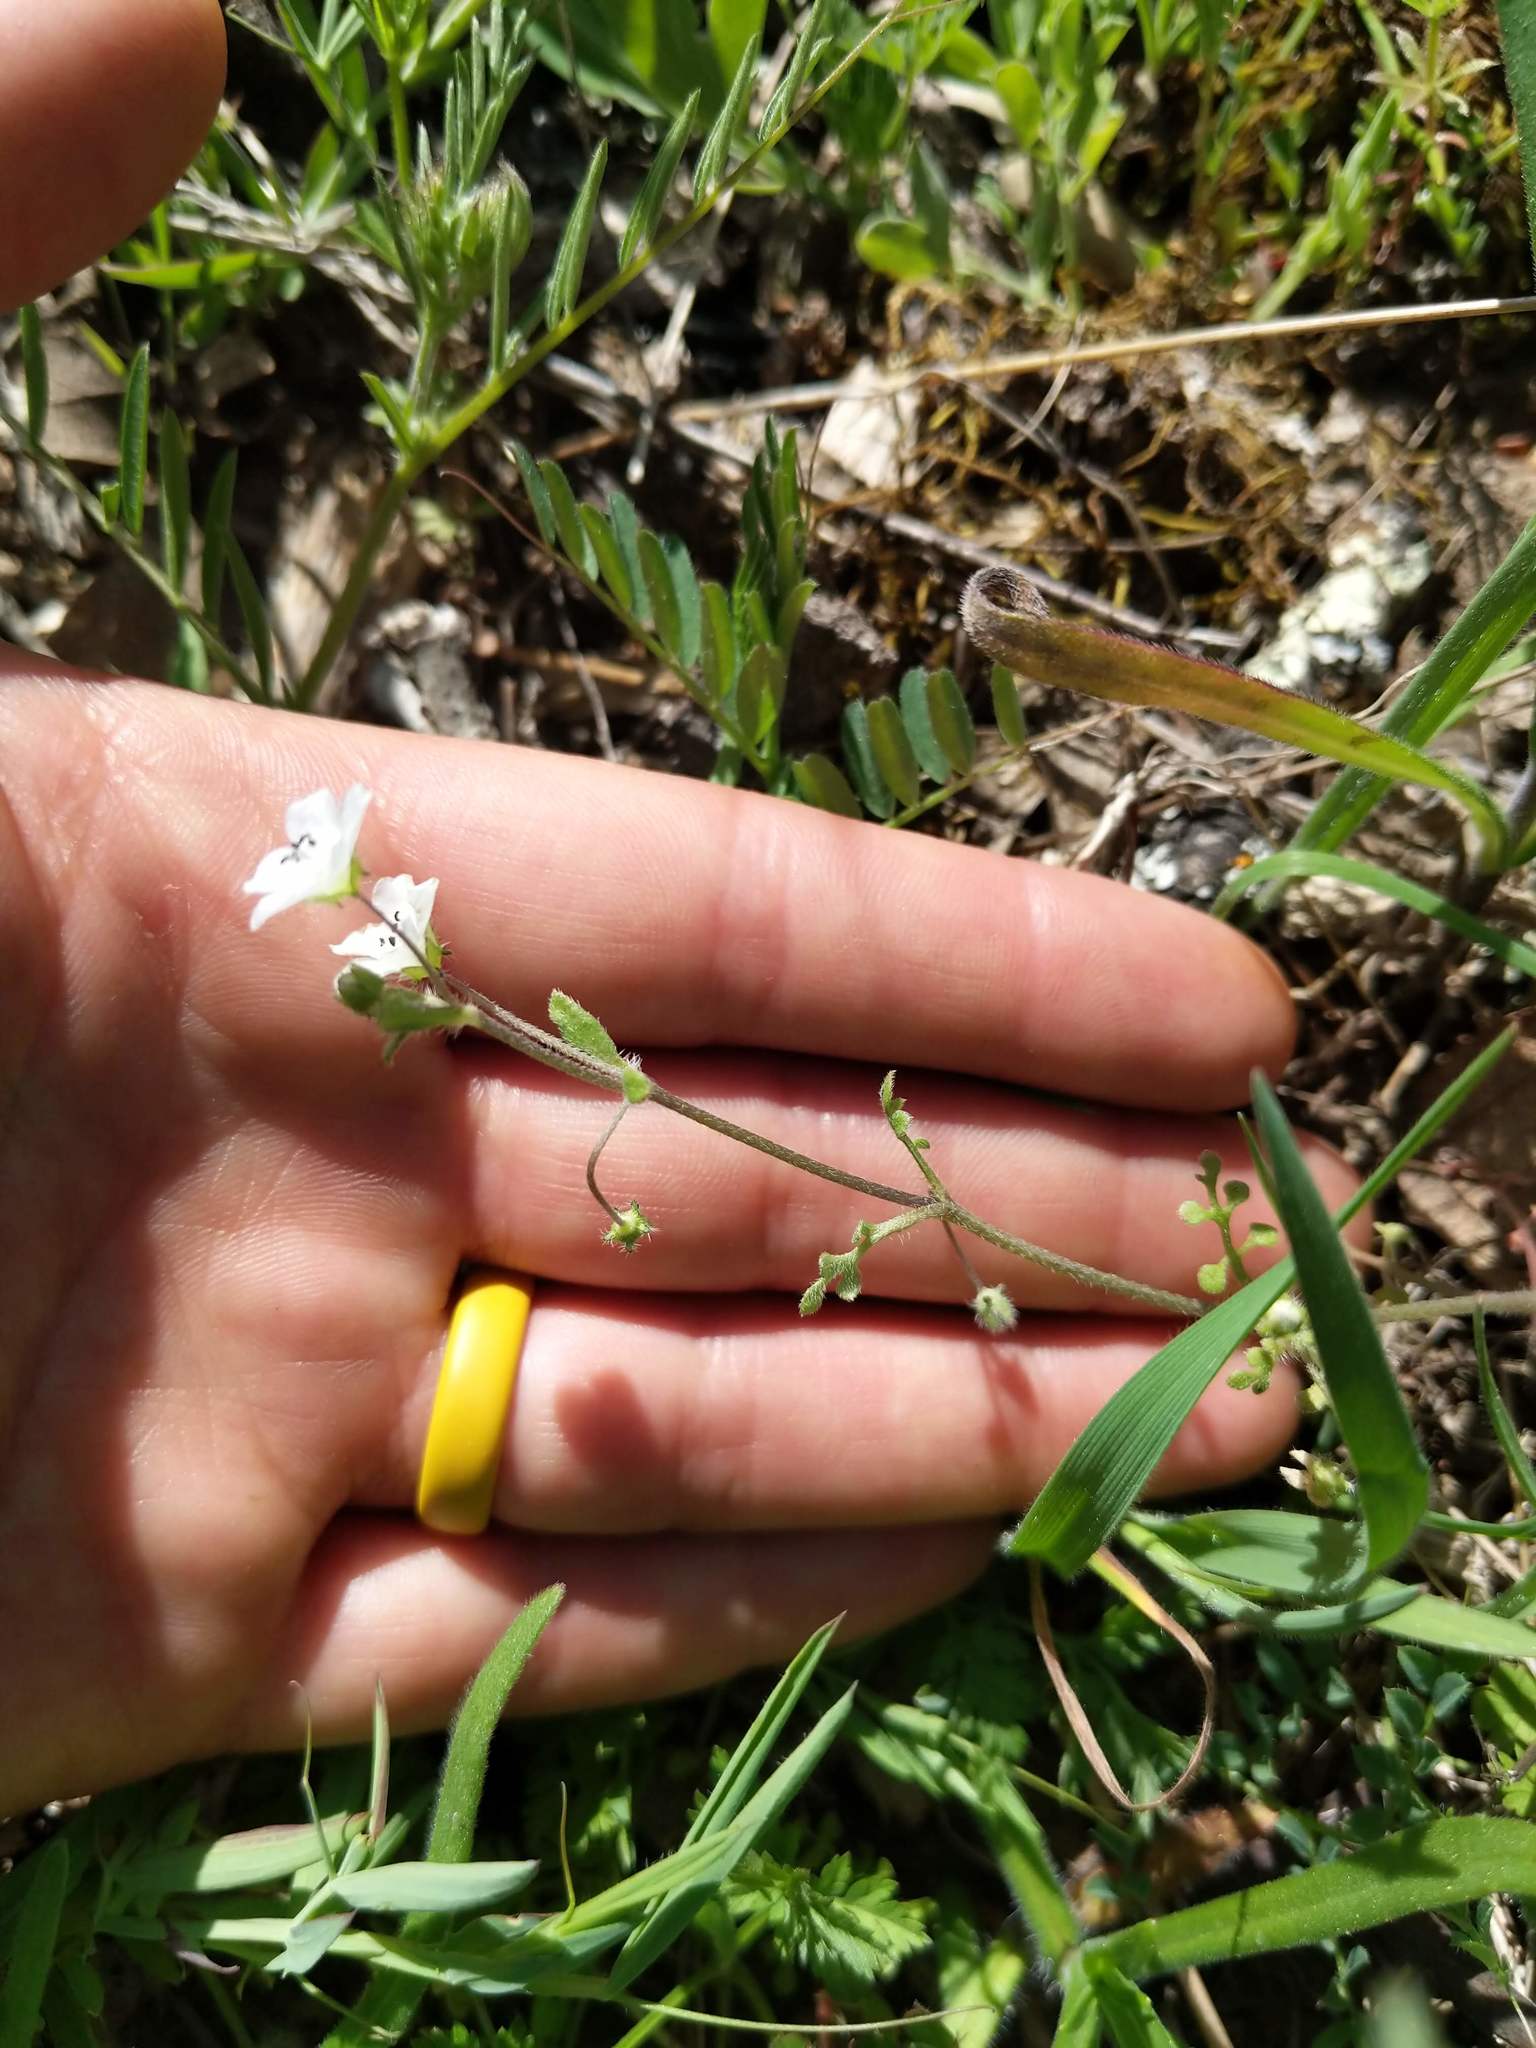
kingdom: Plantae
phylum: Tracheophyta
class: Magnoliopsida
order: Boraginales
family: Hydrophyllaceae
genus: Nemophila
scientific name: Nemophila heterophylla
